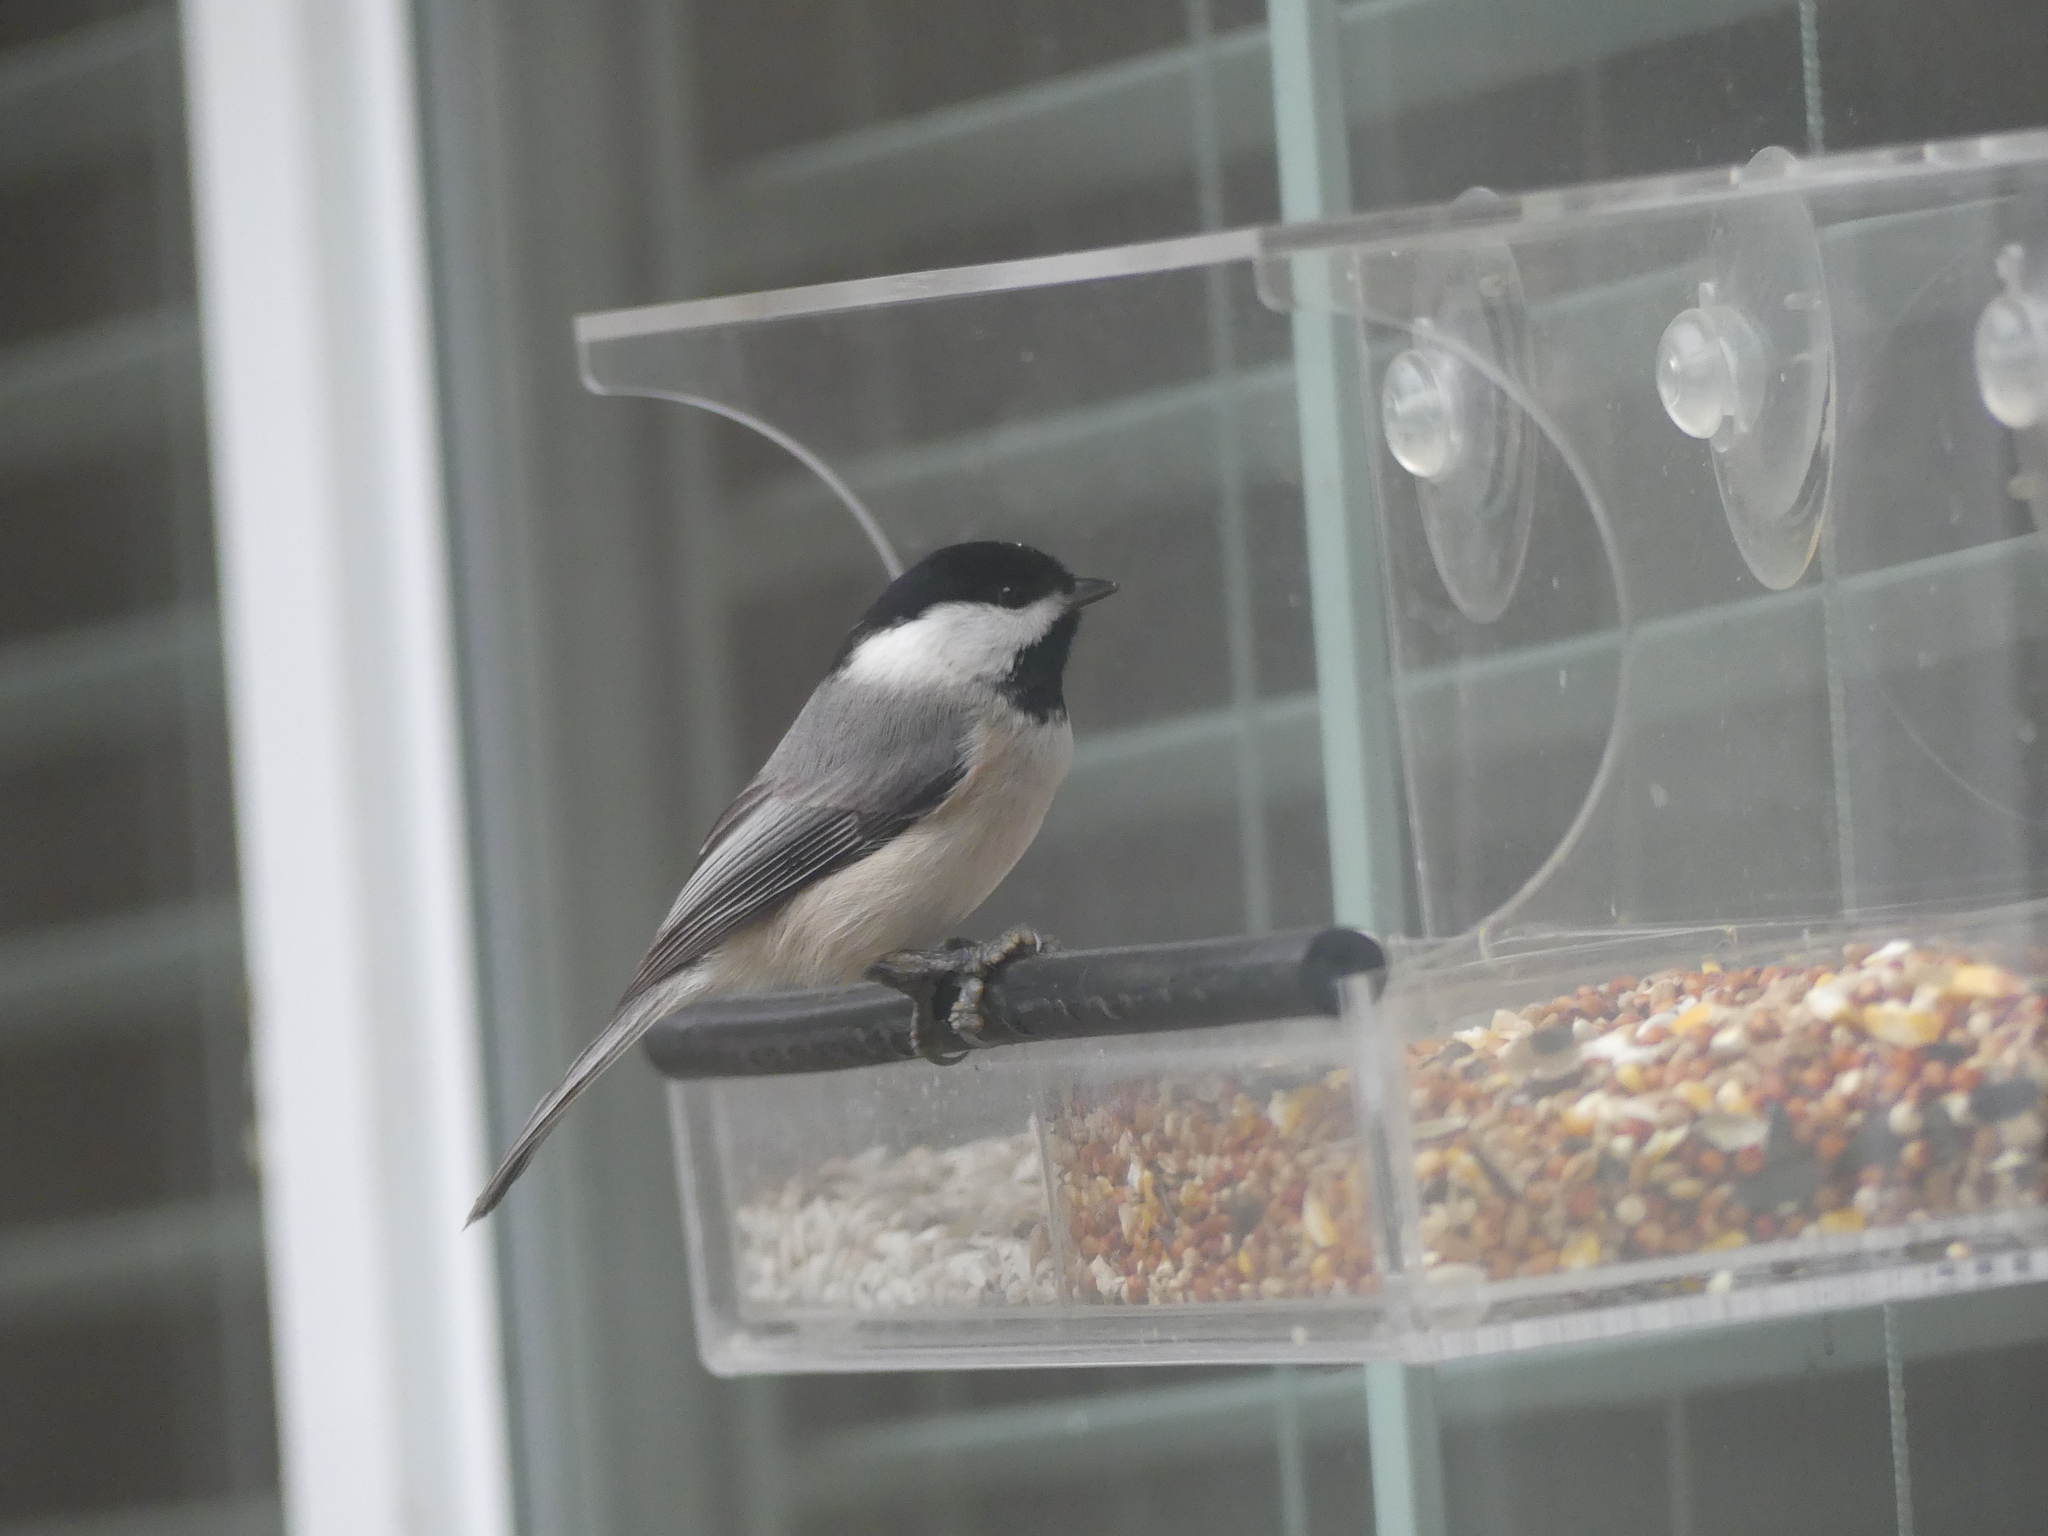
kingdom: Animalia
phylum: Chordata
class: Aves
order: Passeriformes
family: Paridae
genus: Poecile
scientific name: Poecile carolinensis
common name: Carolina chickadee
